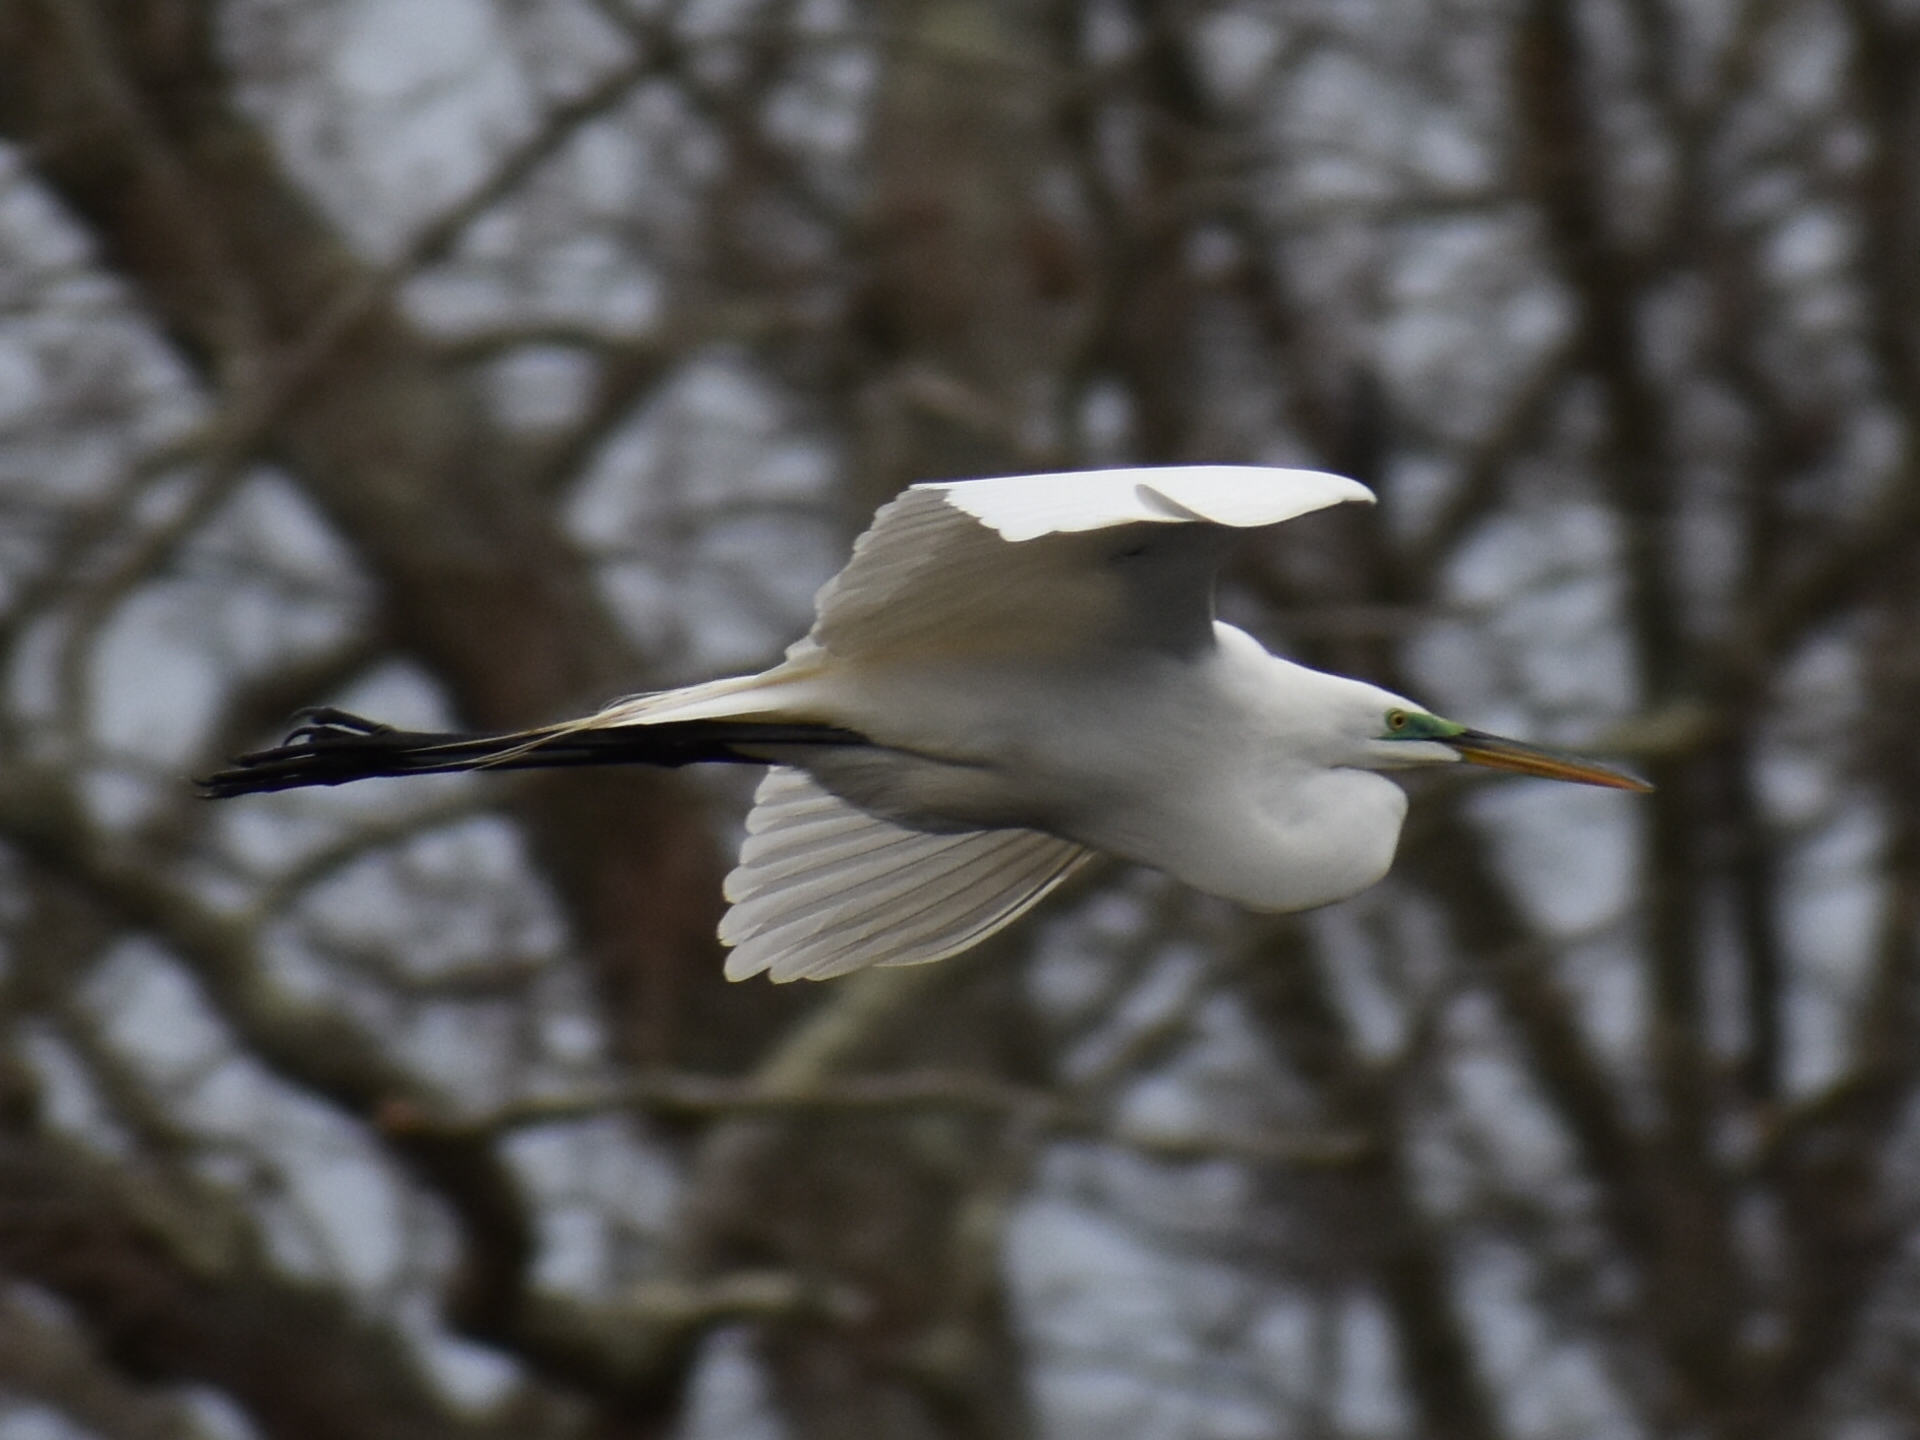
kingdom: Animalia
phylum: Chordata
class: Aves
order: Pelecaniformes
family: Ardeidae
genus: Ardea
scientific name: Ardea alba
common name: Great egret
